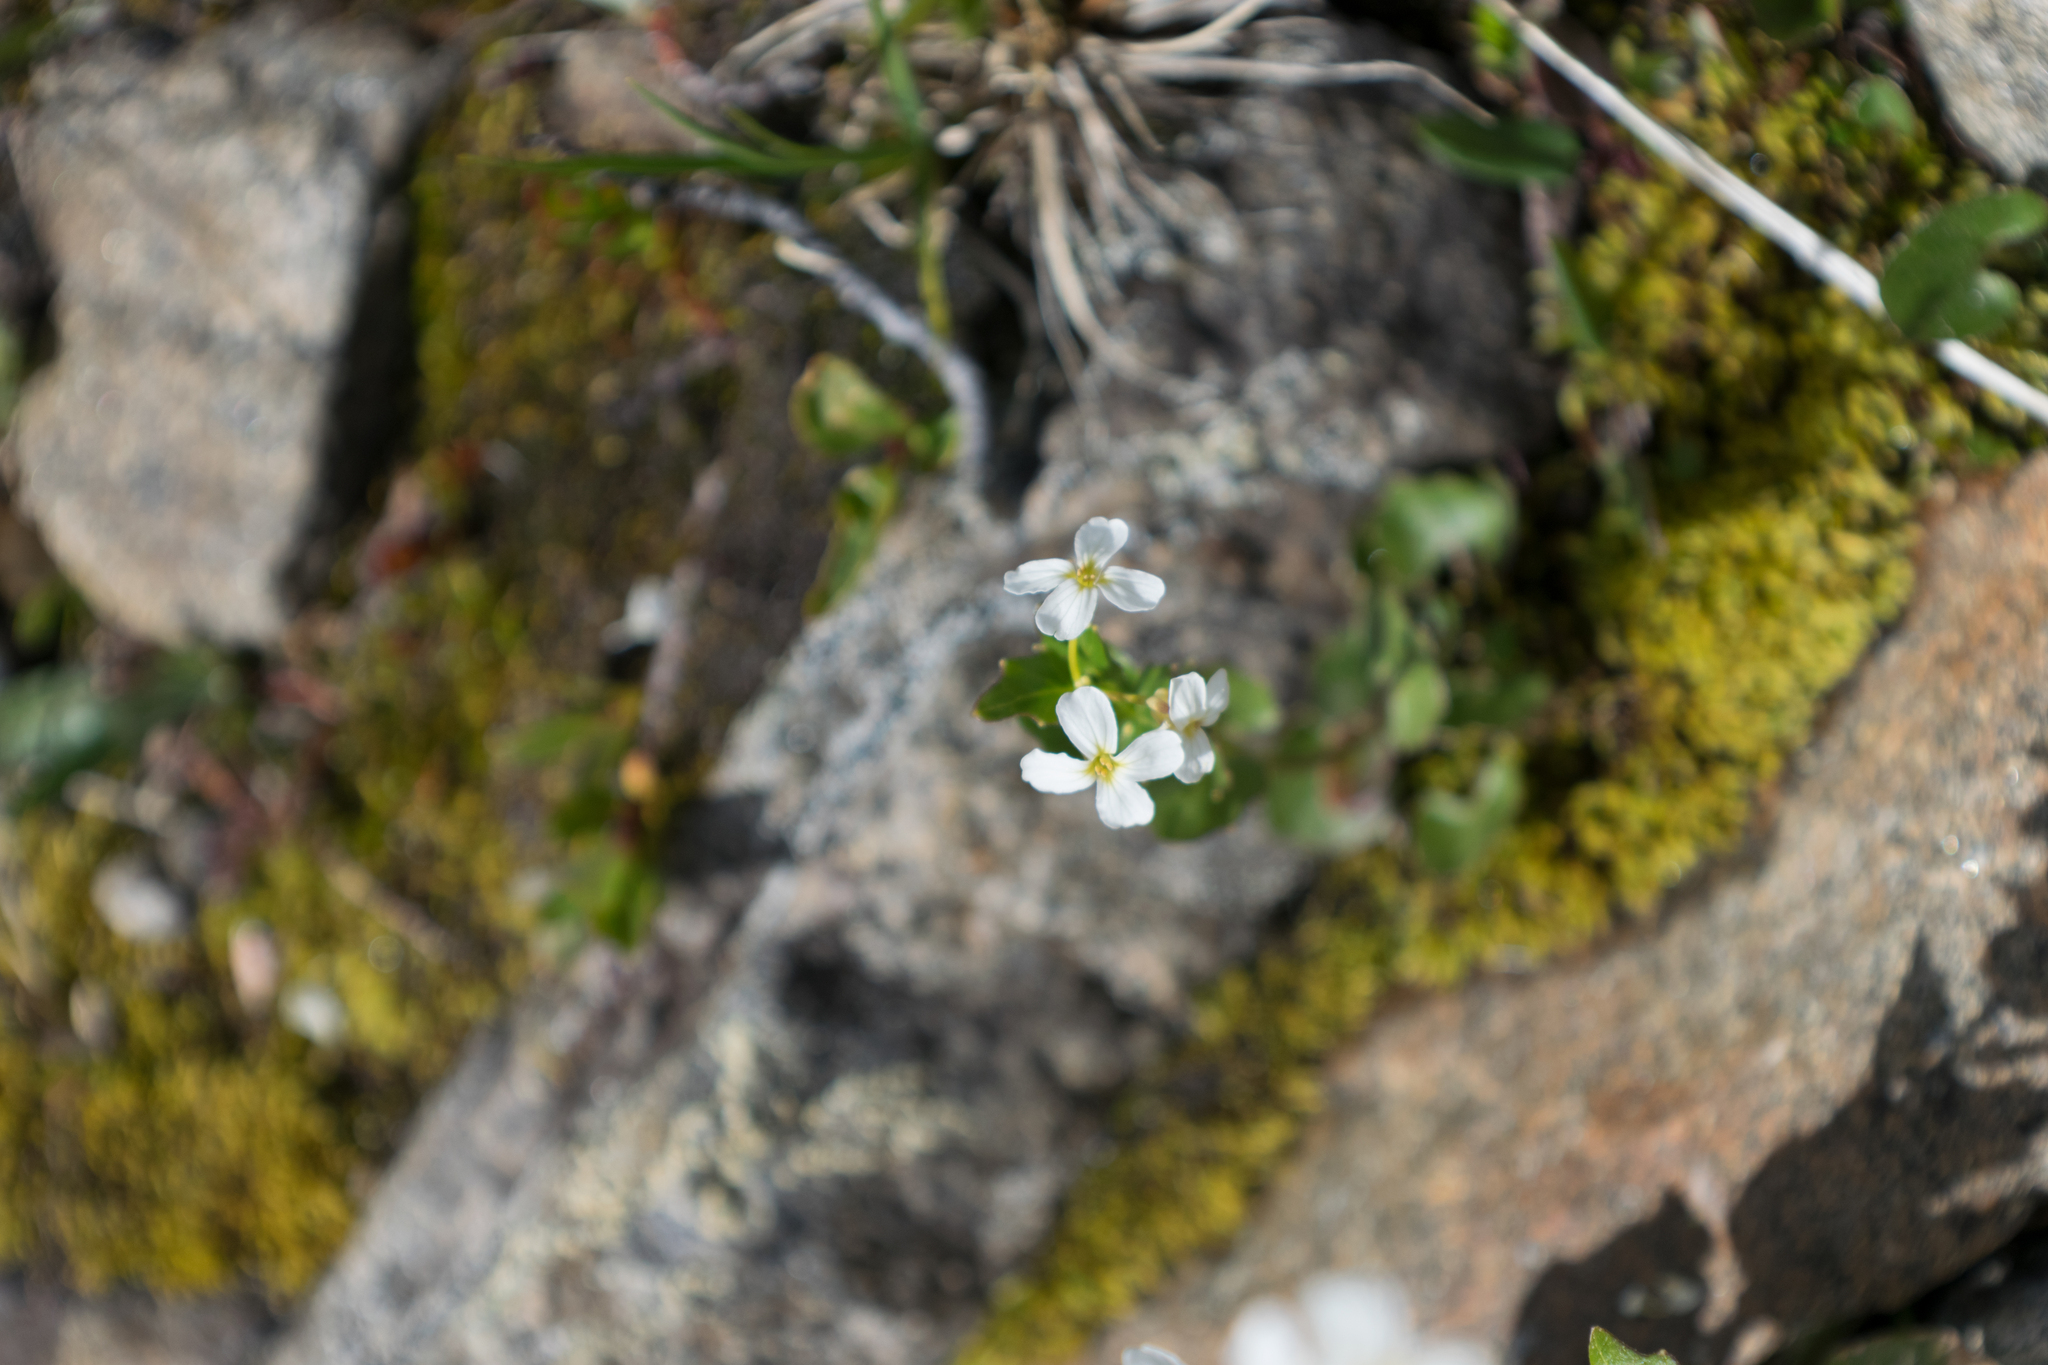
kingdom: Plantae
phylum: Tracheophyta
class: Magnoliopsida
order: Brassicales
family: Brassicaceae
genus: Noccaea
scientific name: Noccaea fendleri
